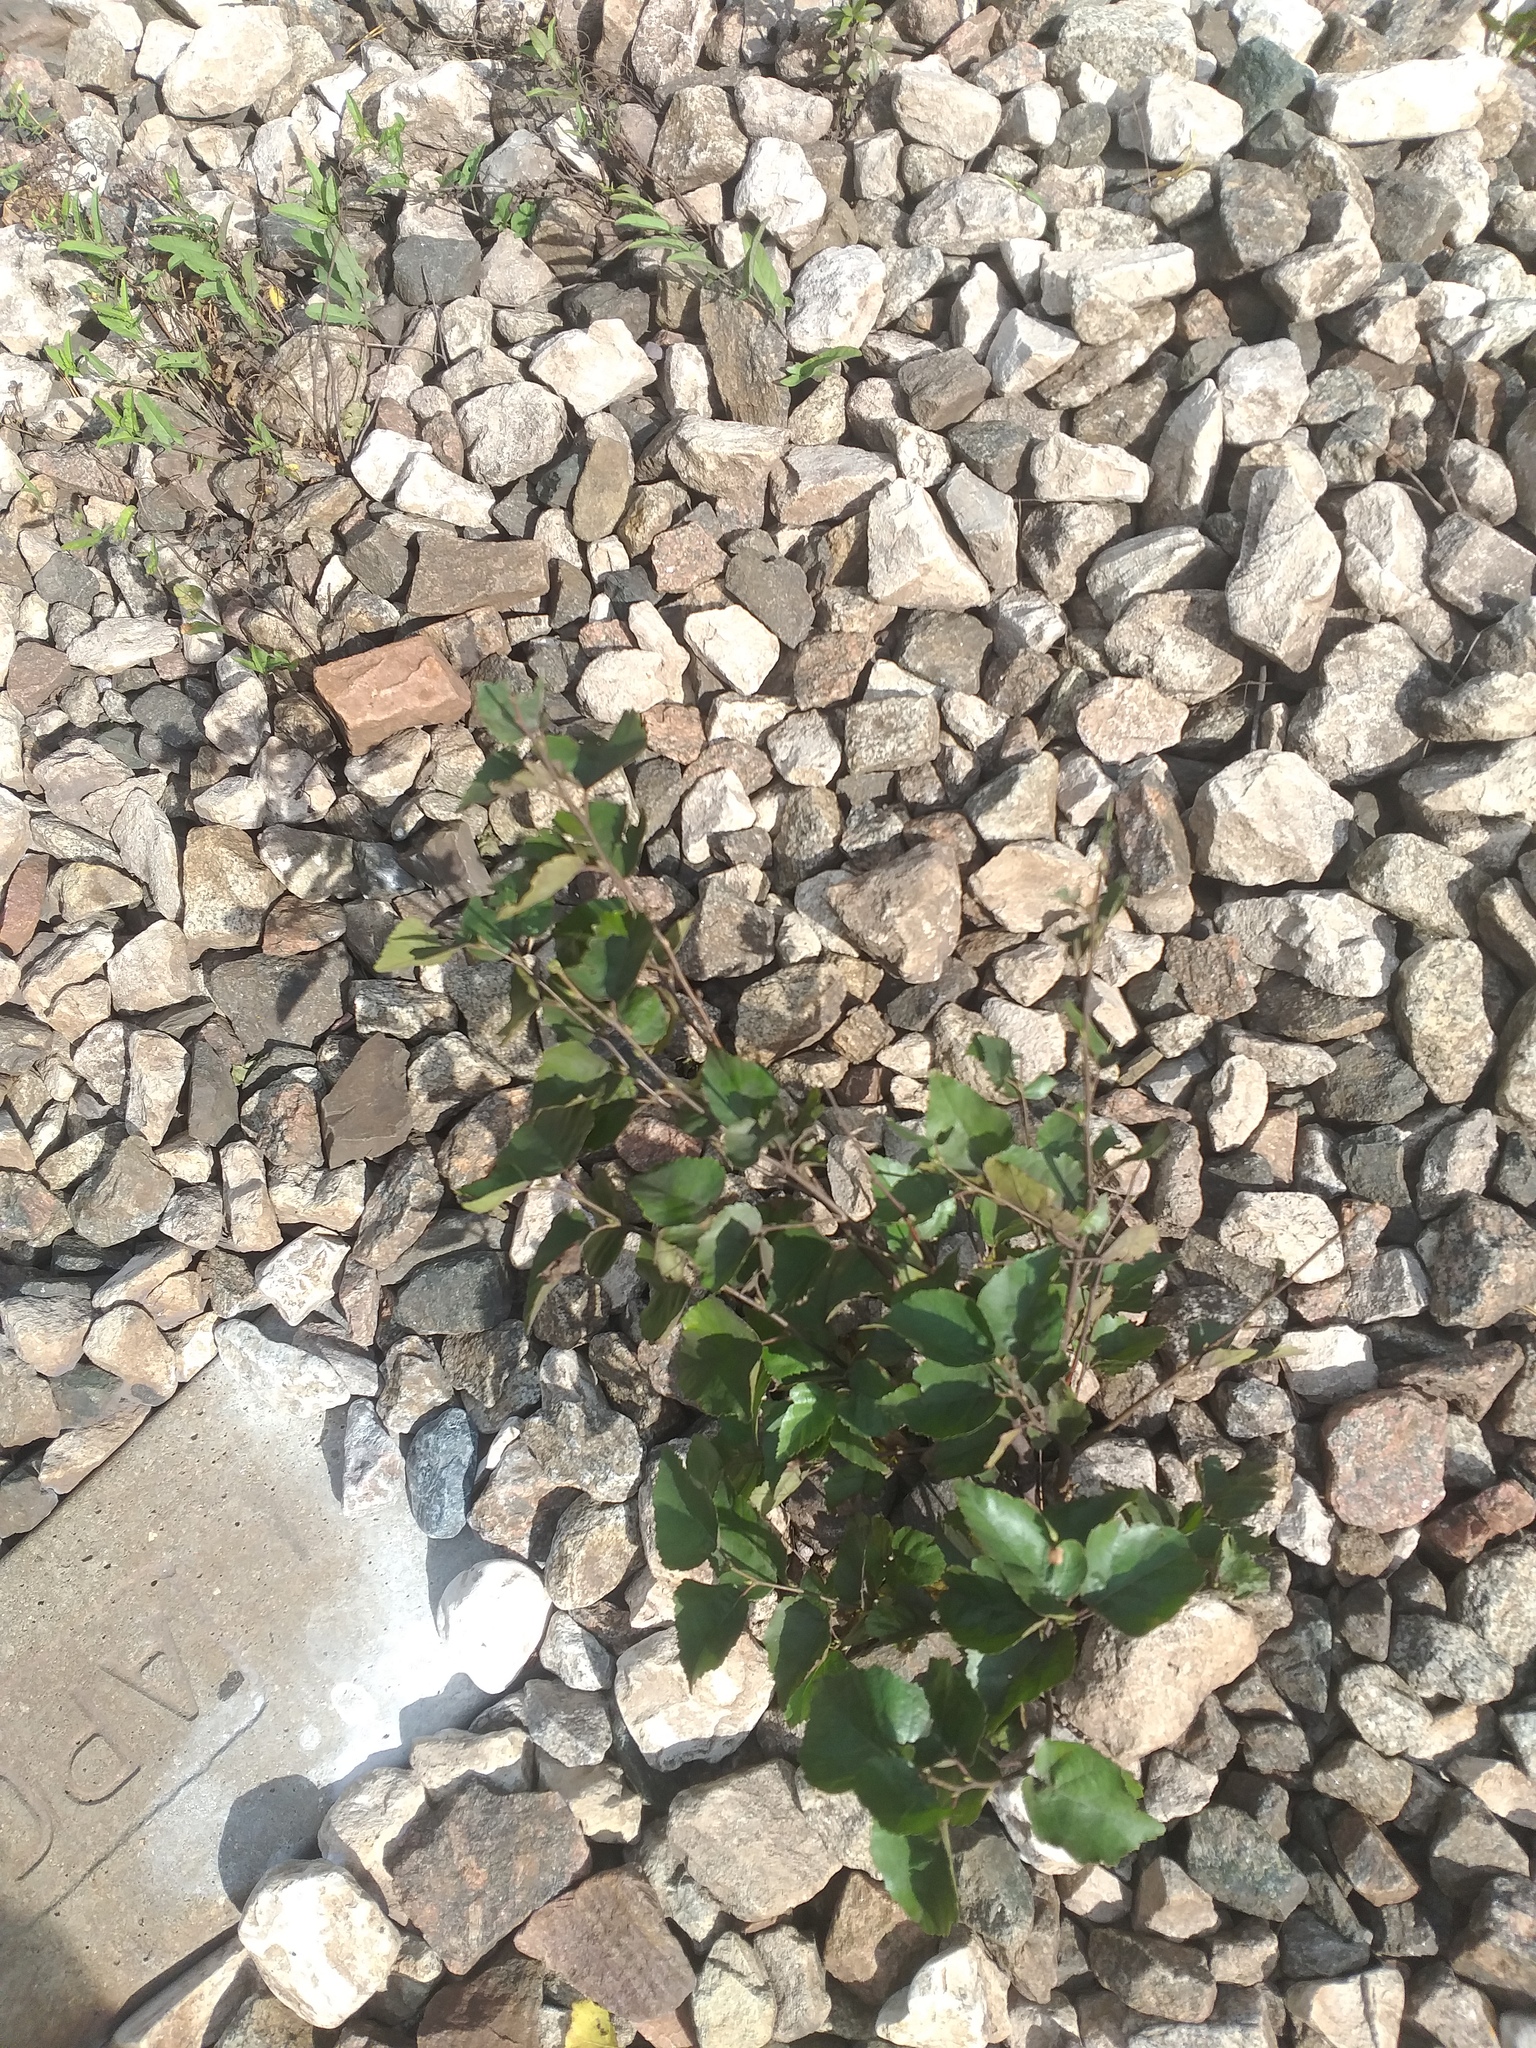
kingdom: Plantae
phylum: Tracheophyta
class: Magnoliopsida
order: Fagales
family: Betulaceae
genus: Betula
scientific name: Betula pendula
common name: Silver birch
